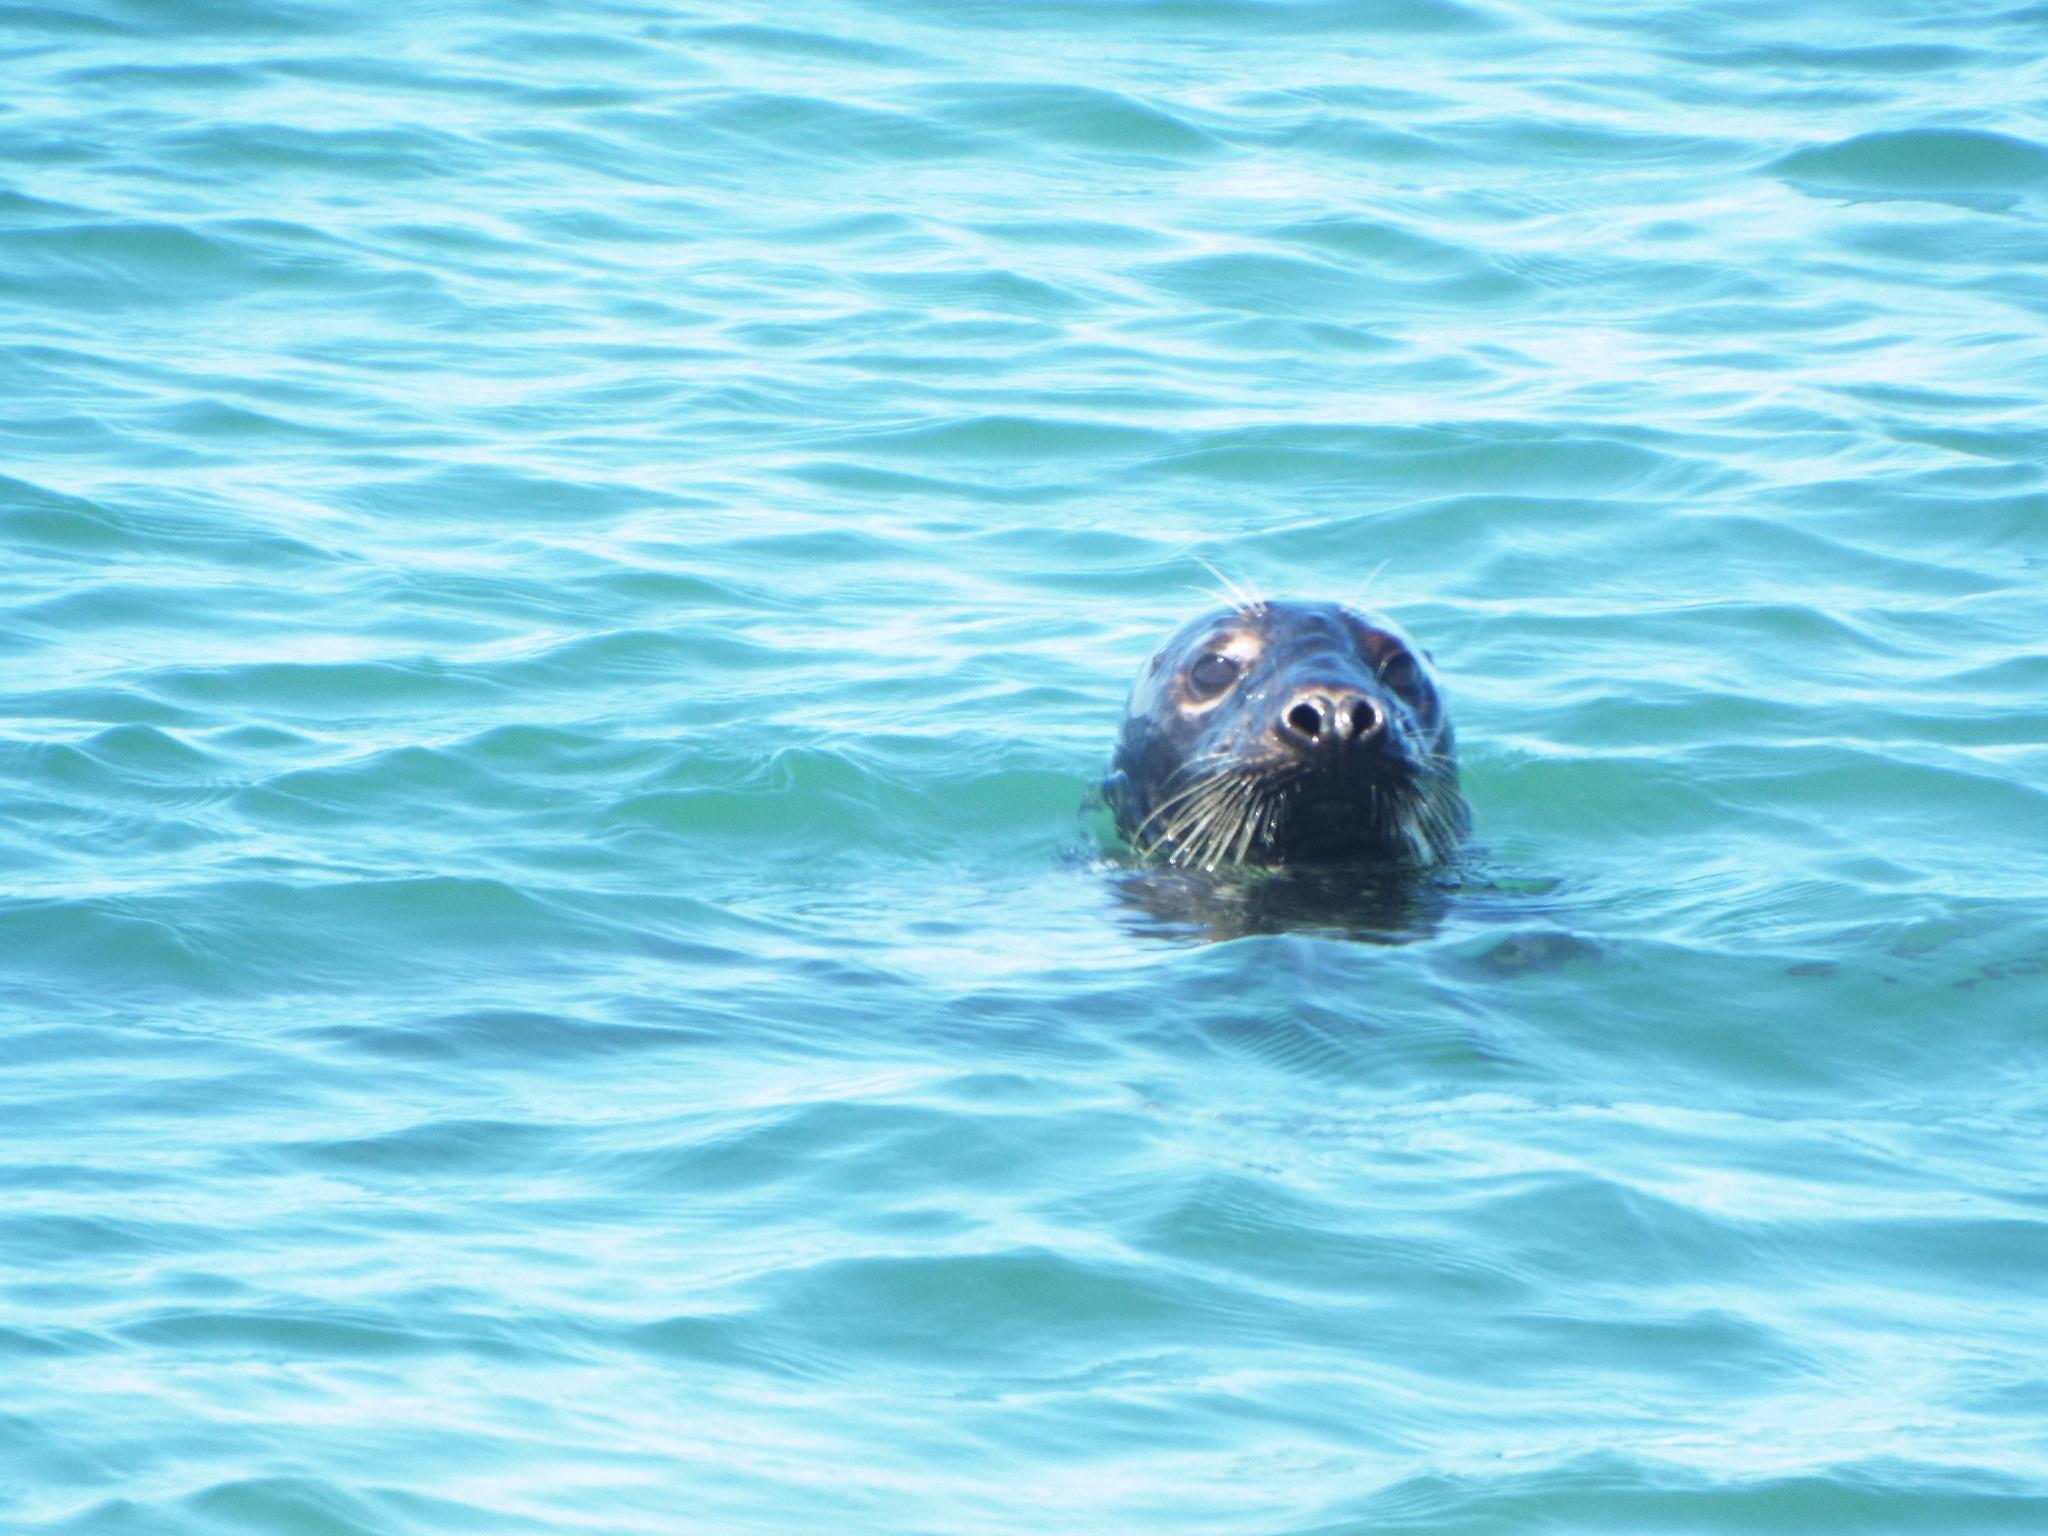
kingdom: Animalia
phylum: Chordata
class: Mammalia
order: Carnivora
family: Phocidae
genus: Halichoerus
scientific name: Halichoerus grypus
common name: Grey seal
